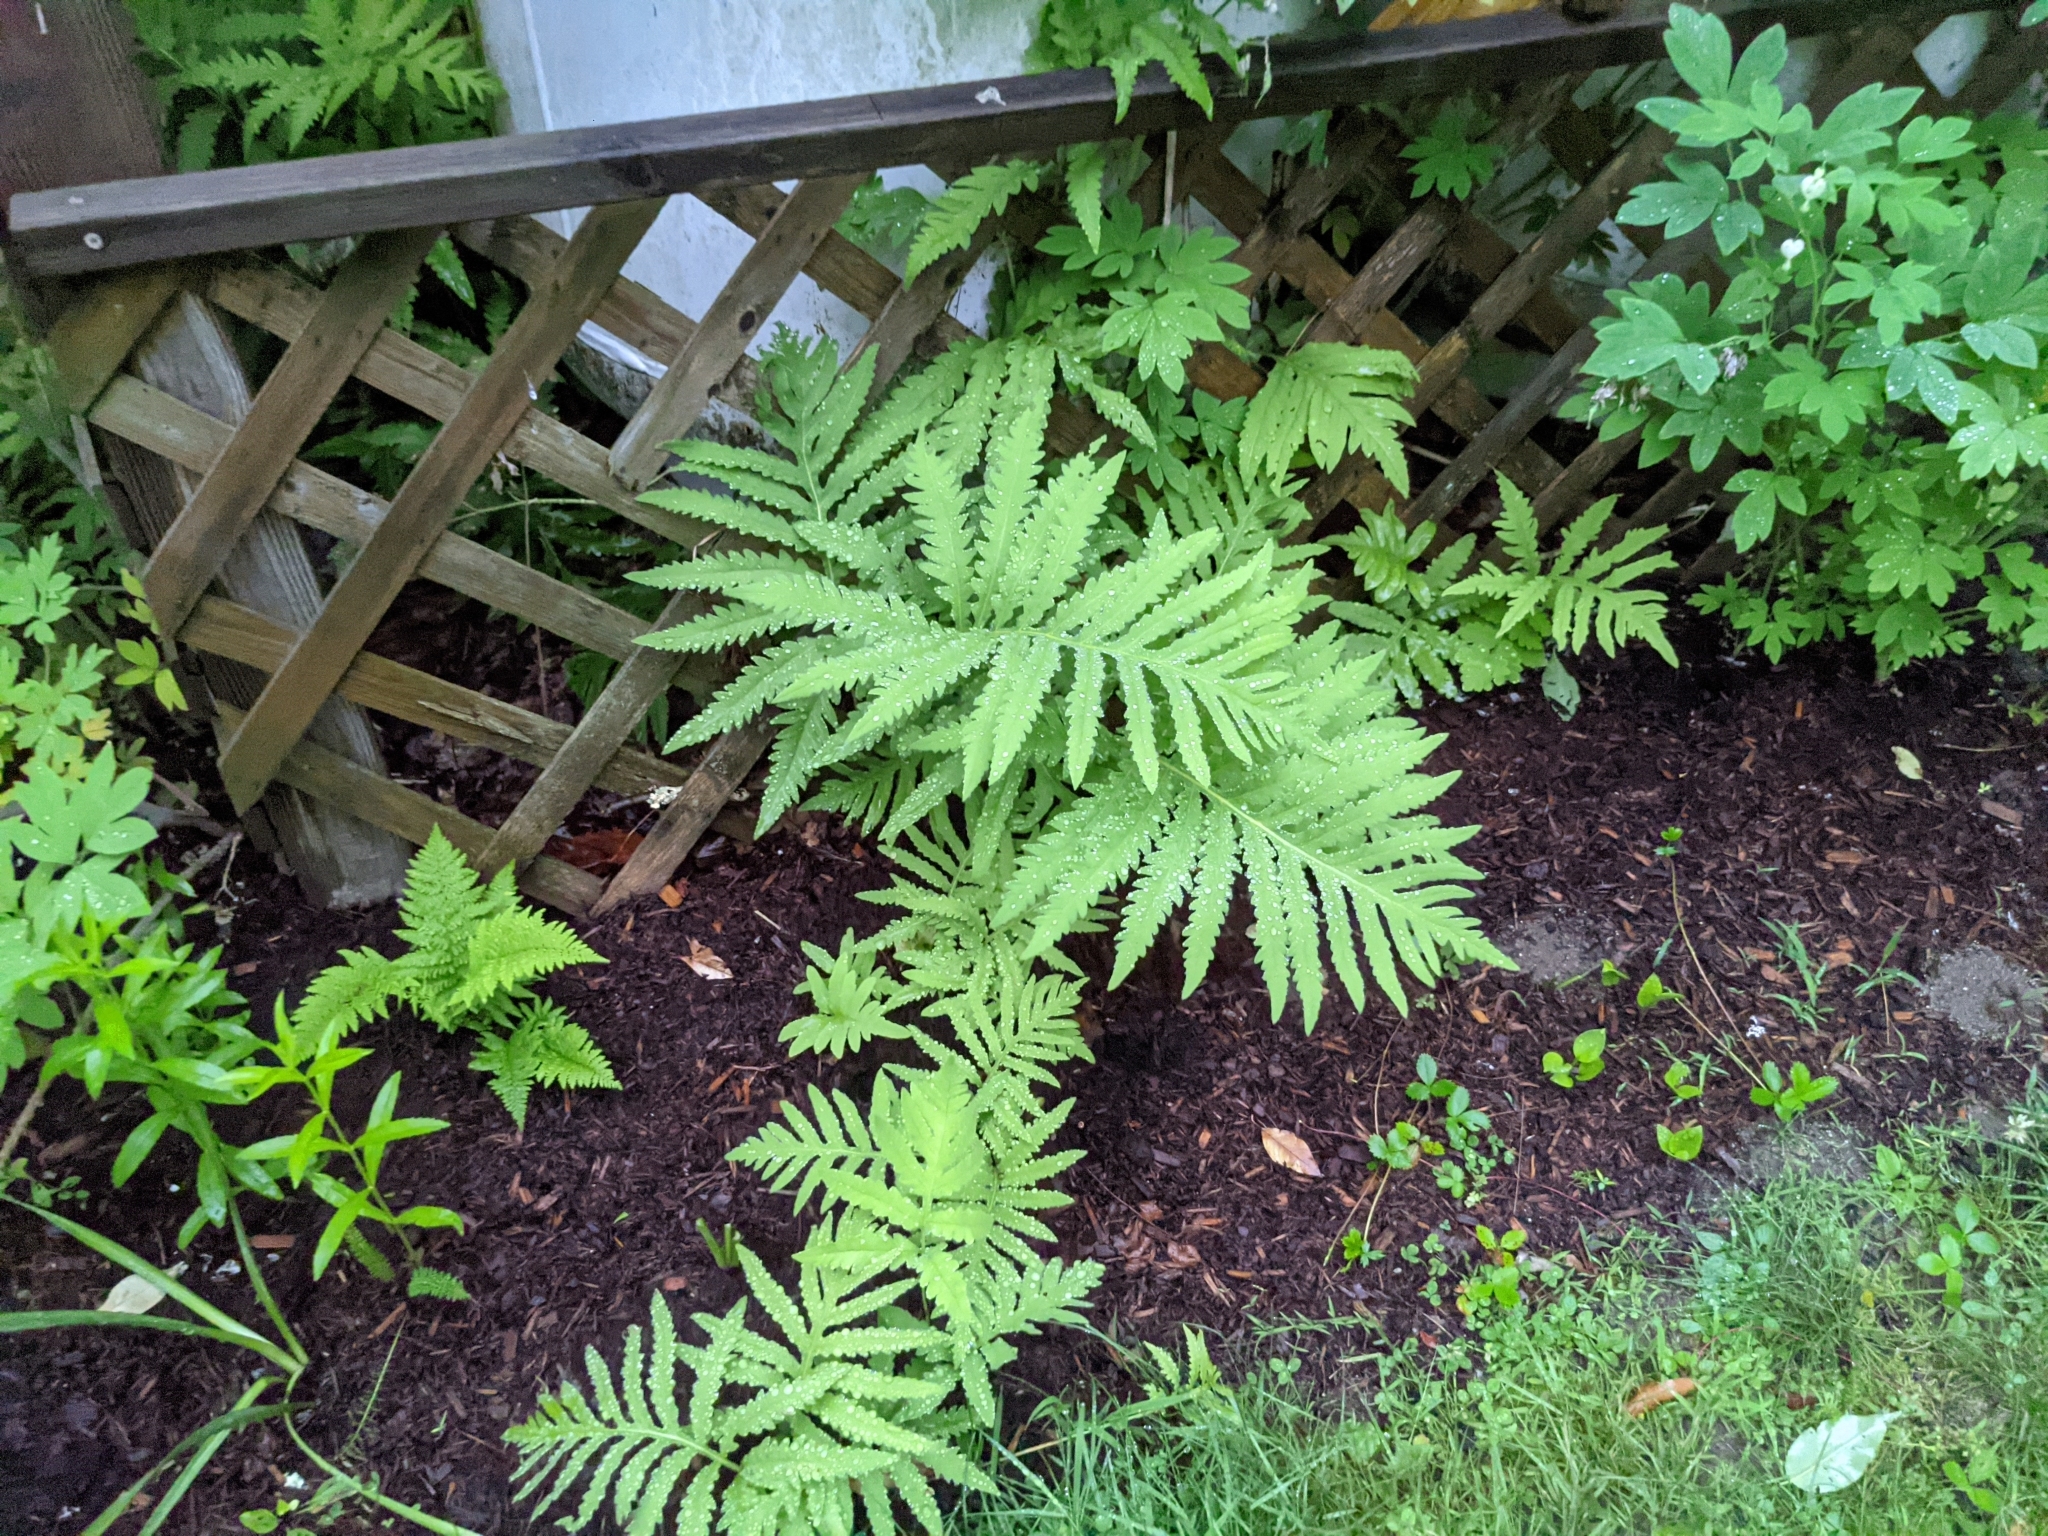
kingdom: Plantae
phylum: Tracheophyta
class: Polypodiopsida
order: Polypodiales
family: Onocleaceae
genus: Onoclea
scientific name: Onoclea sensibilis
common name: Sensitive fern
